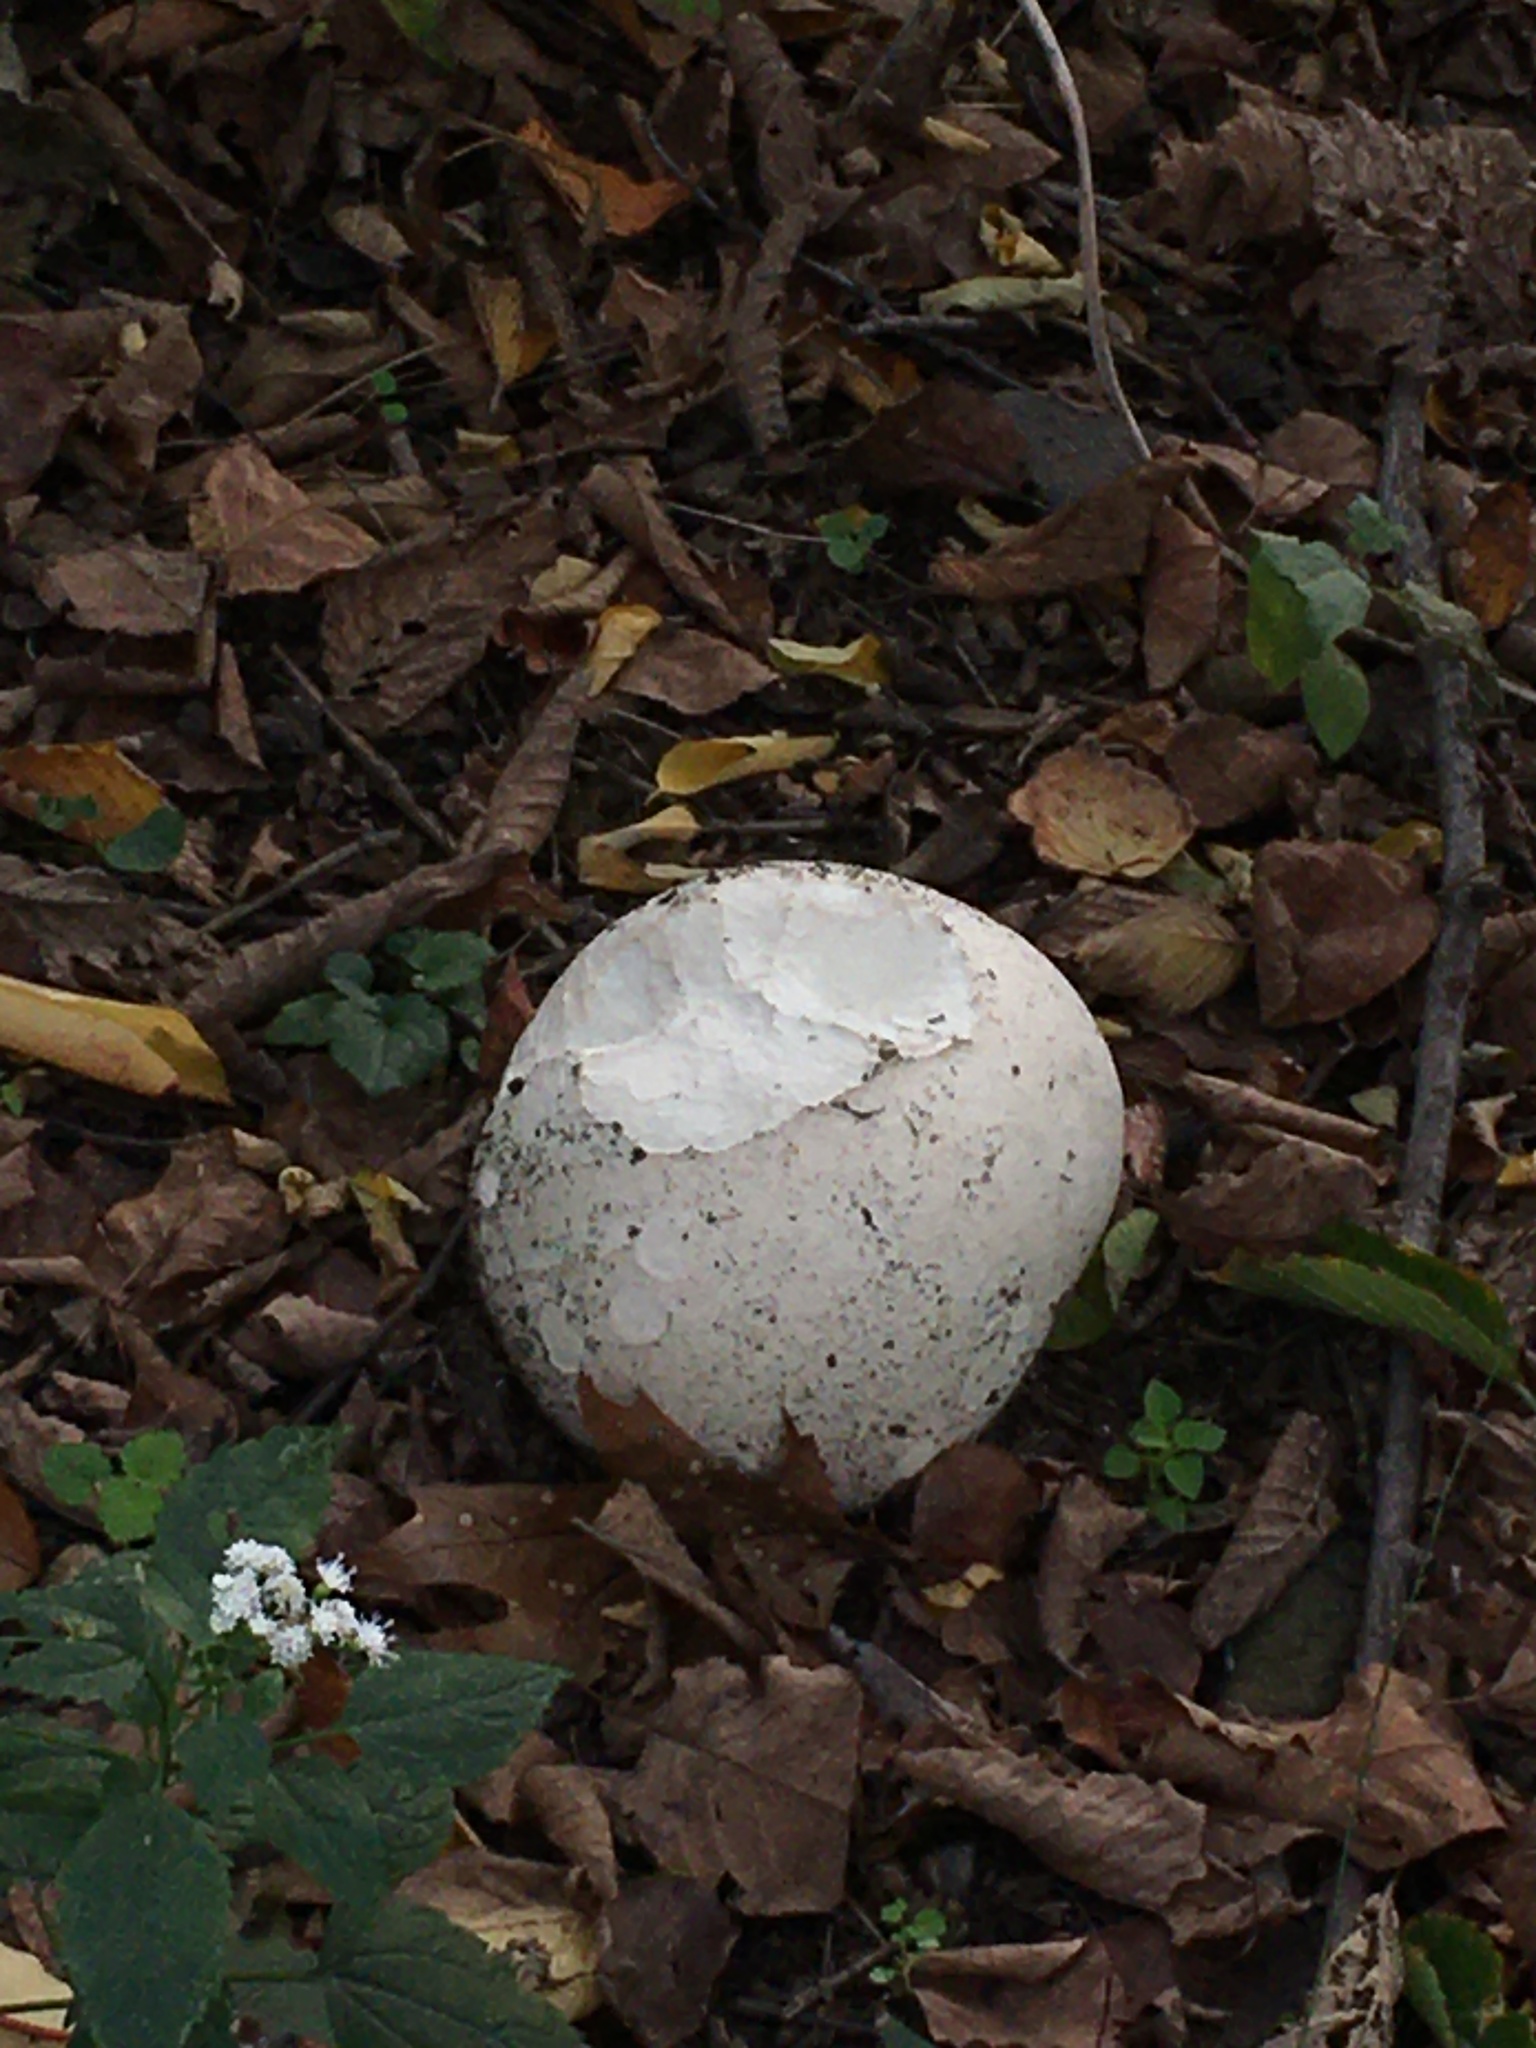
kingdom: Fungi
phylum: Basidiomycota
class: Agaricomycetes
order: Agaricales
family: Lycoperdaceae
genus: Calvatia
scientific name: Calvatia gigantea
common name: Giant puffball
